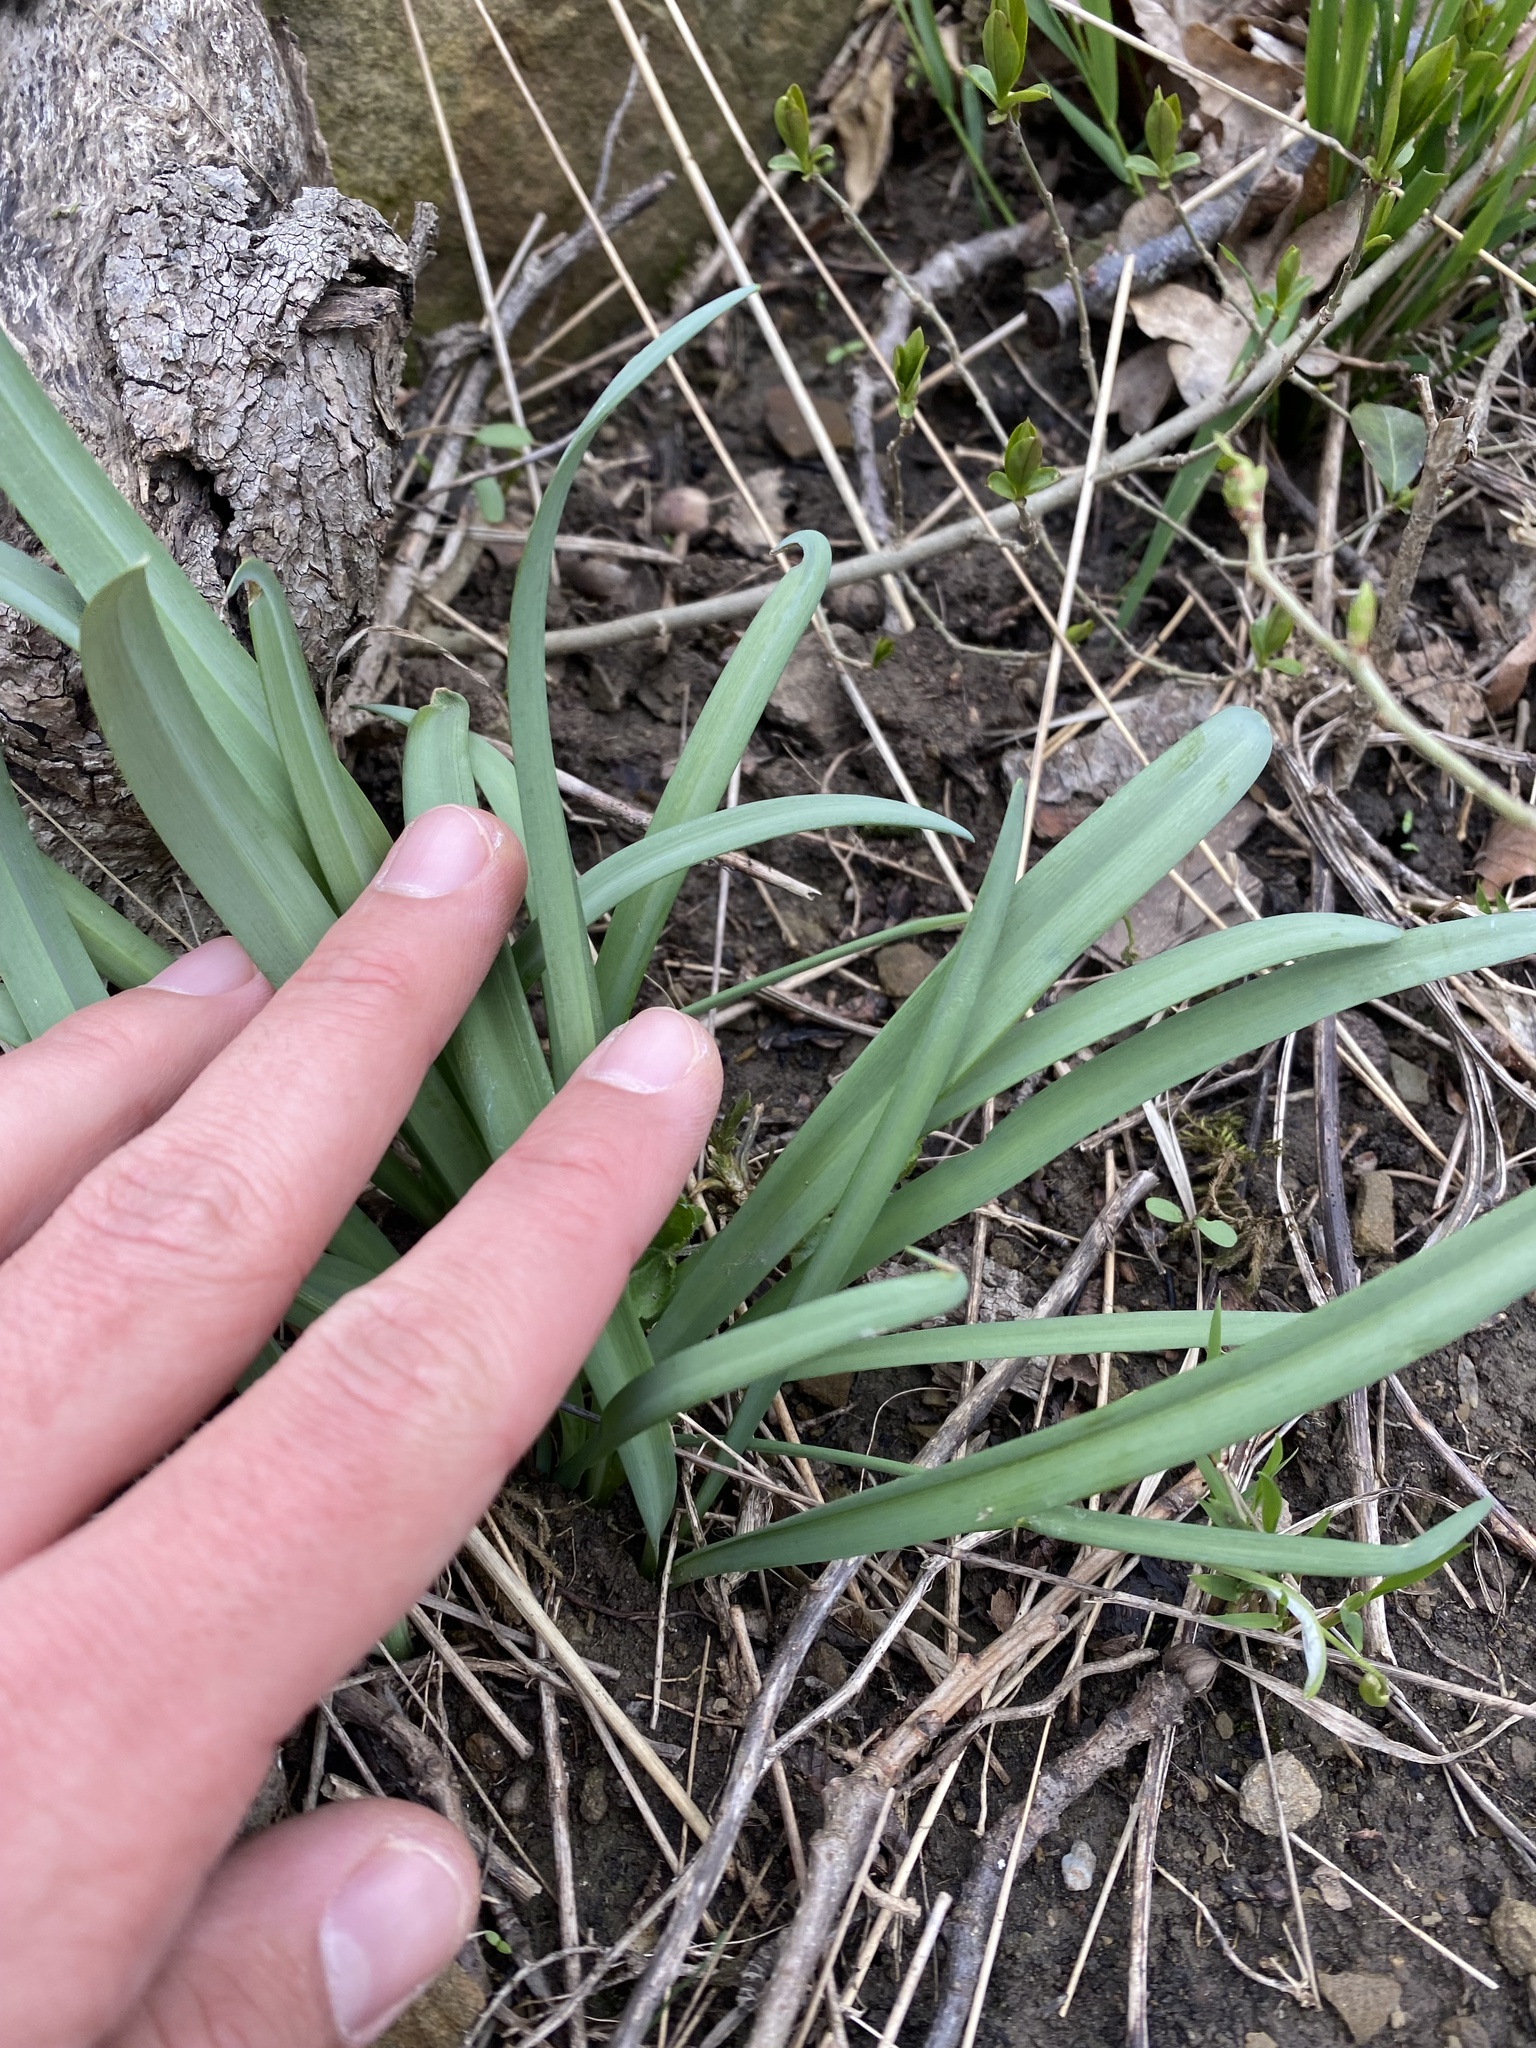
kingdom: Plantae
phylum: Tracheophyta
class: Liliopsida
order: Asparagales
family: Amaryllidaceae
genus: Galanthus
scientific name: Galanthus alpinus
